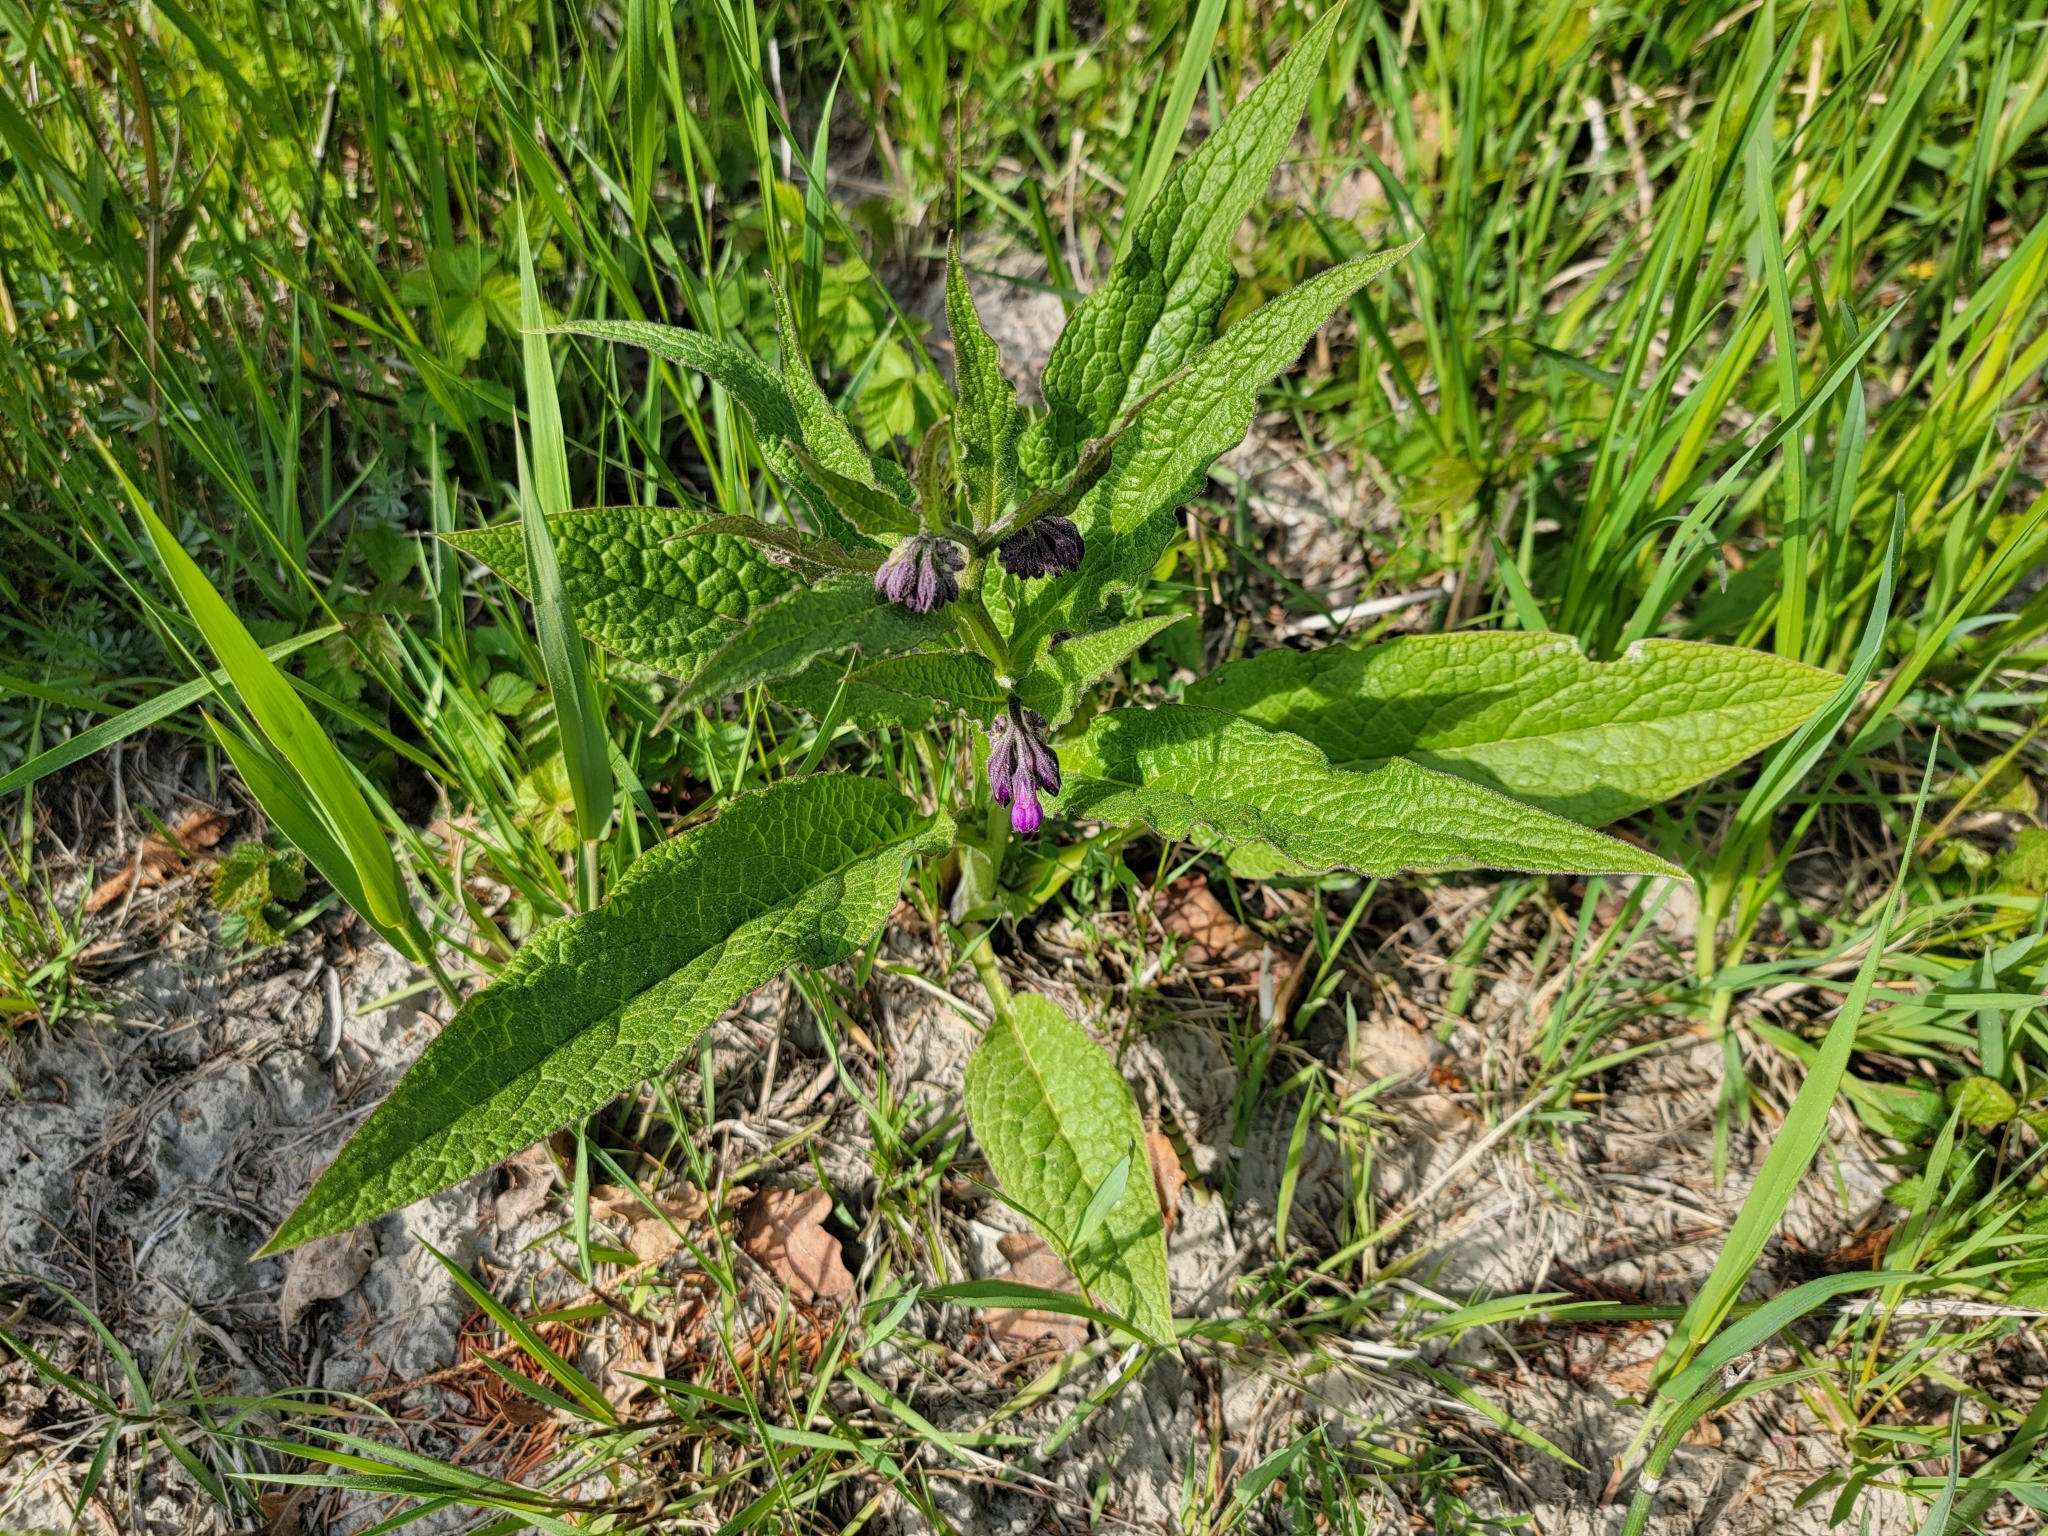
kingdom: Plantae
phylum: Tracheophyta
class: Magnoliopsida
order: Boraginales
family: Boraginaceae
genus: Symphytum
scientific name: Symphytum officinale
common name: Common comfrey
